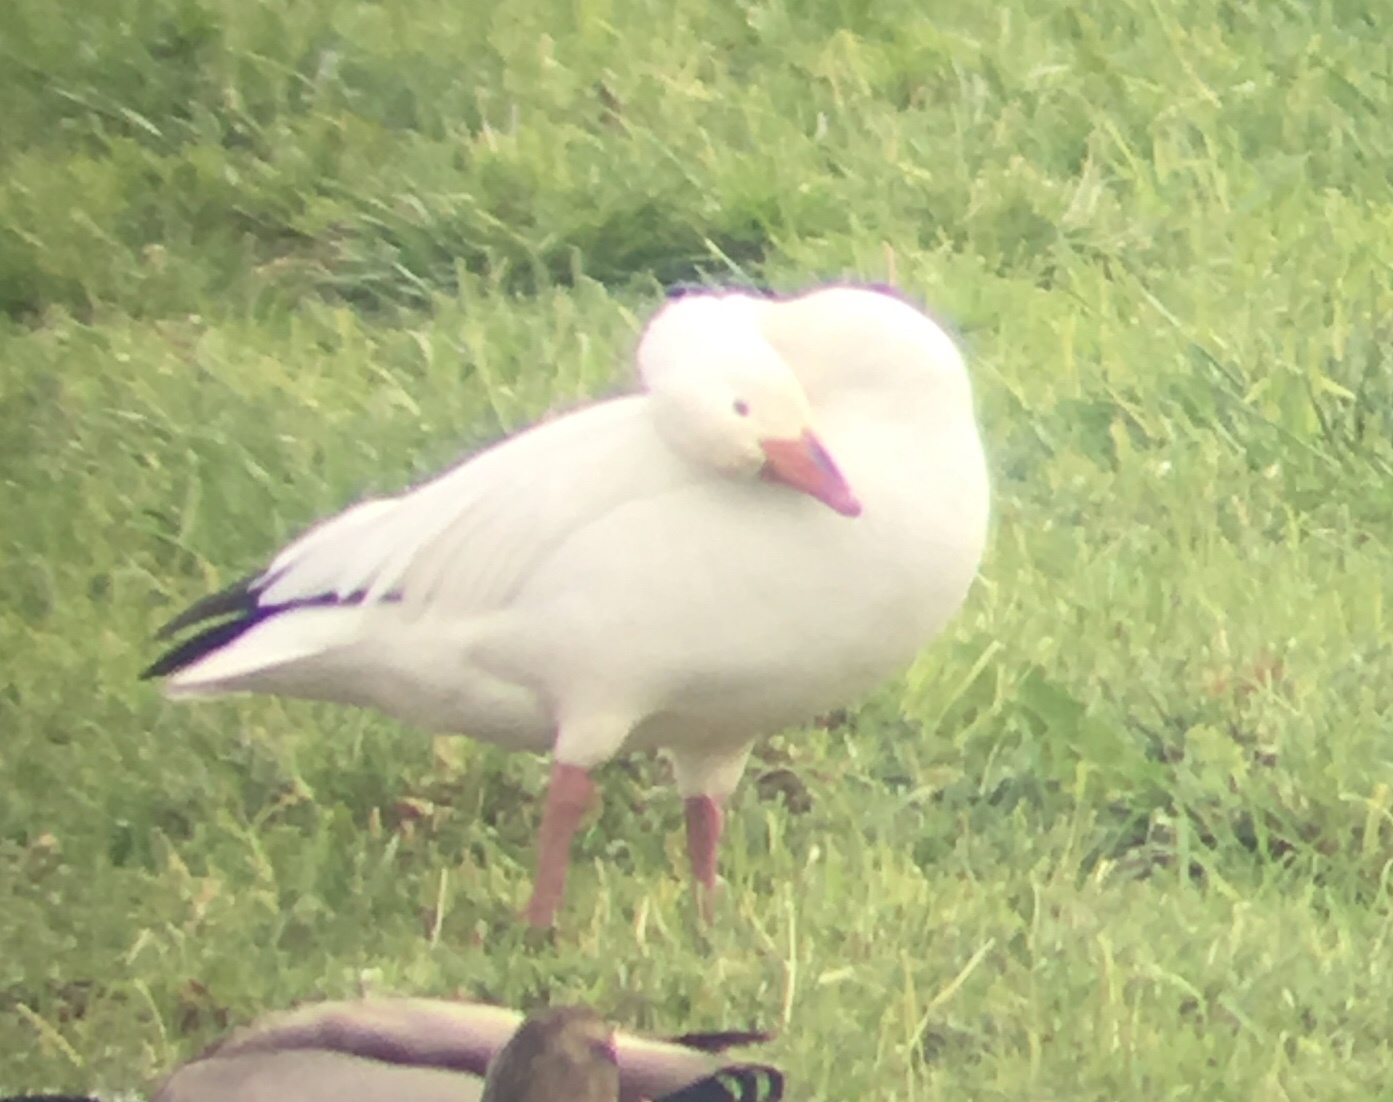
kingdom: Animalia
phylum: Chordata
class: Aves
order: Anseriformes
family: Anatidae
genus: Anser
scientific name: Anser caerulescens
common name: Snow goose
